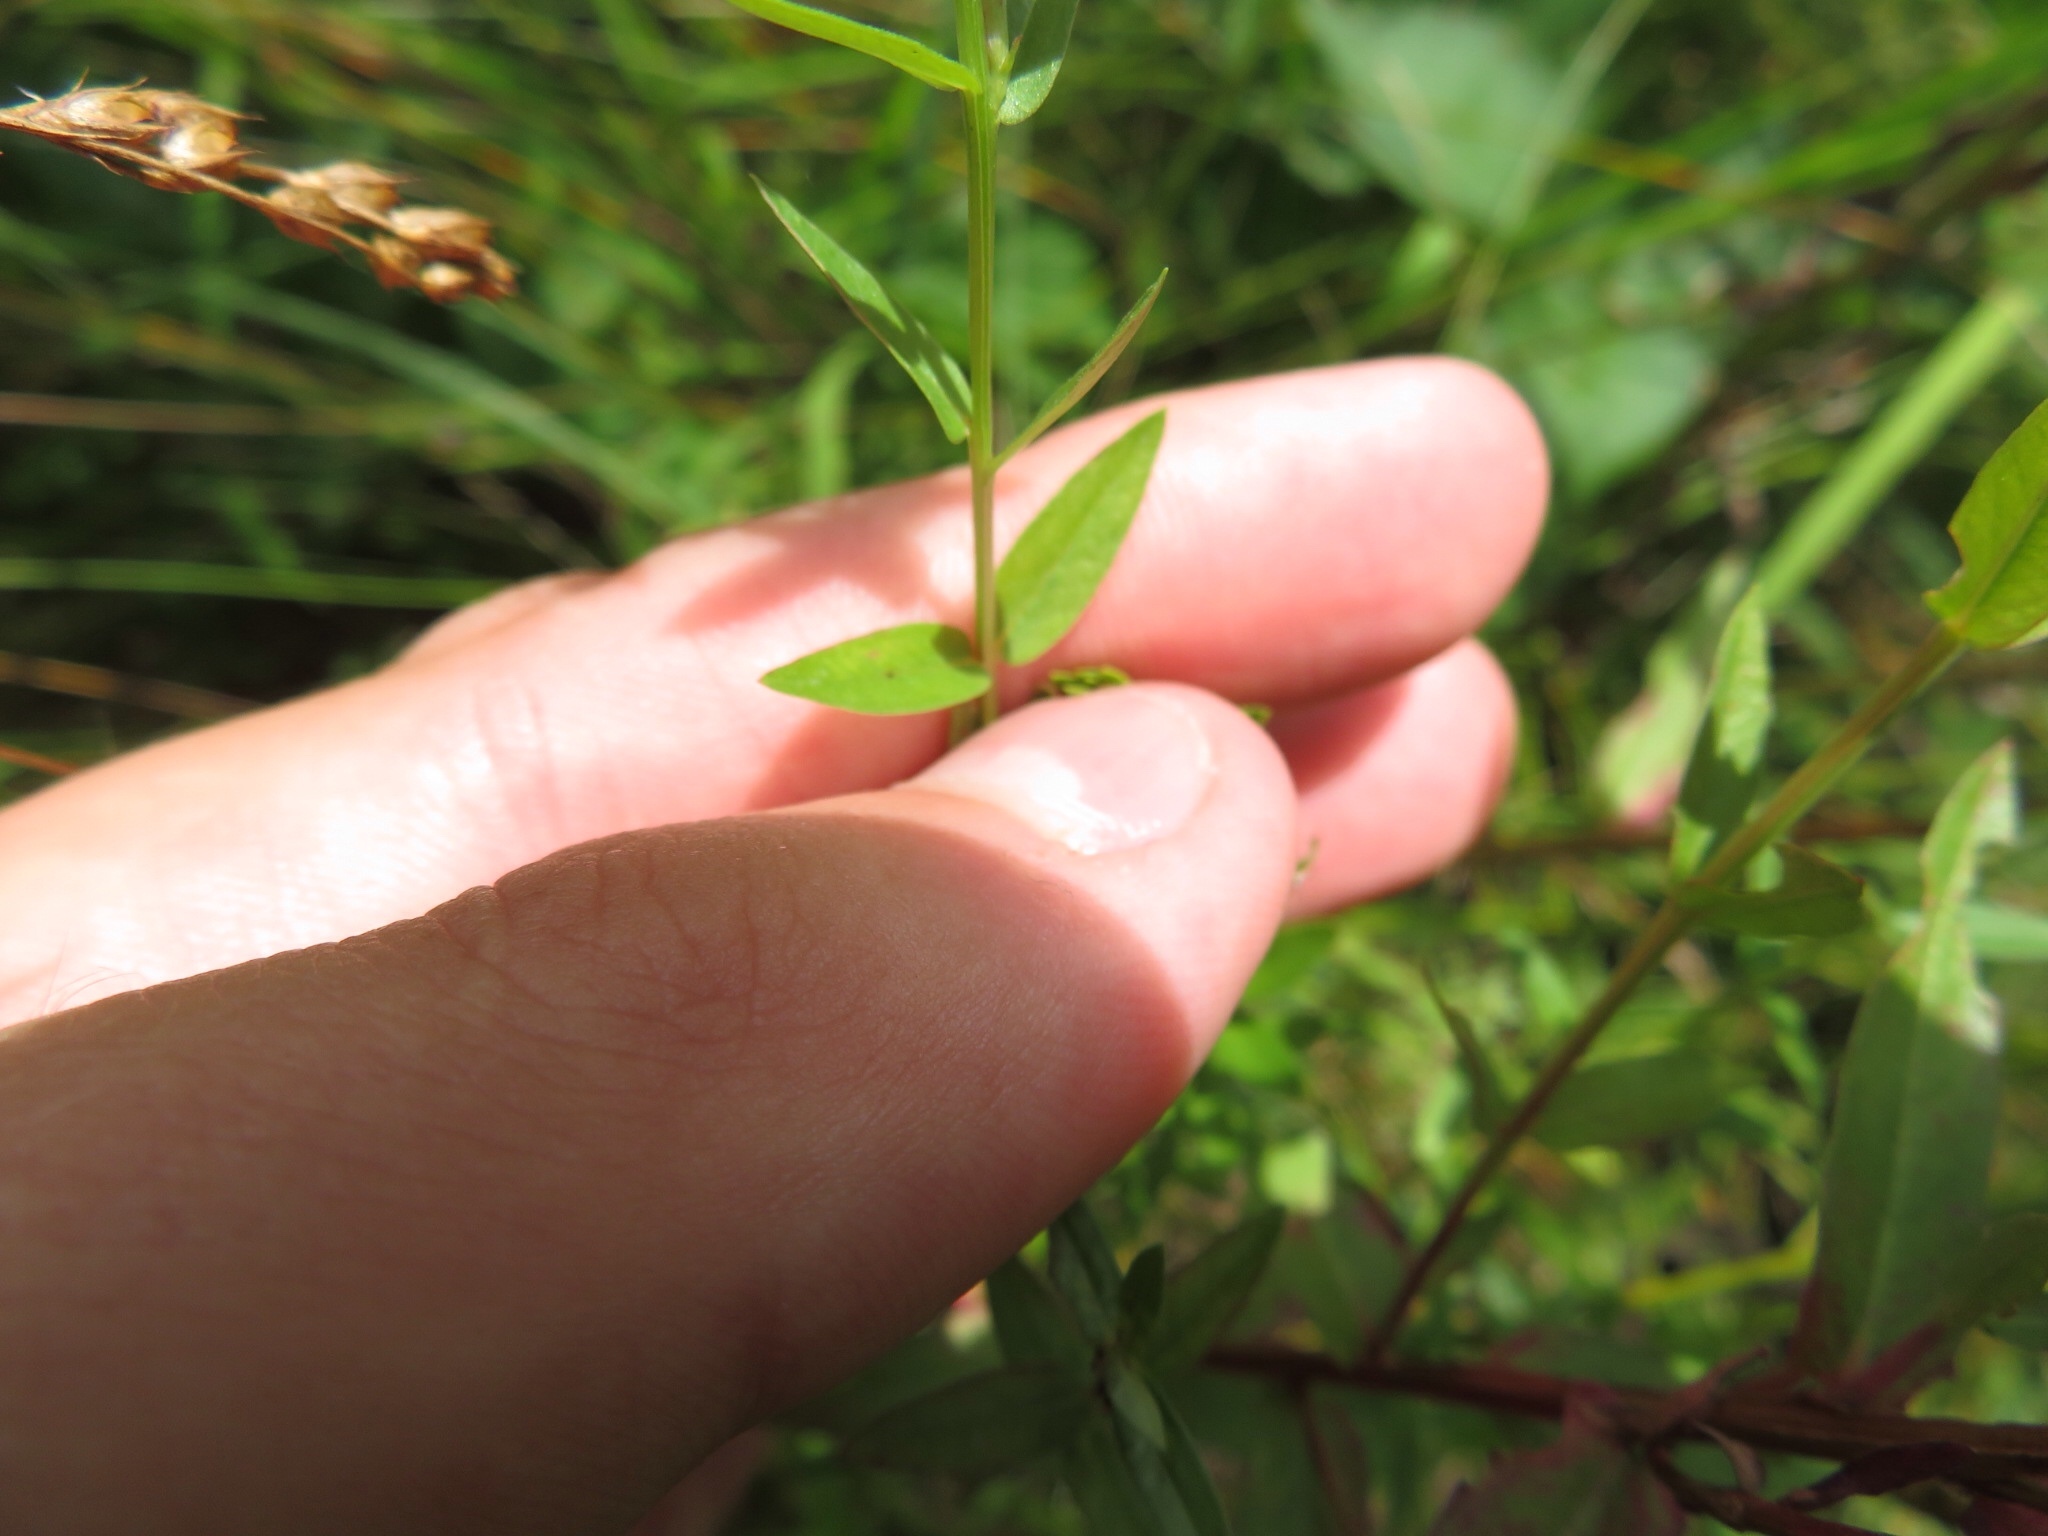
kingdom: Plantae
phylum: Tracheophyta
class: Magnoliopsida
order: Myrtales
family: Lythraceae
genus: Lythrum
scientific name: Lythrum alatum
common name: Winged loosestrife
